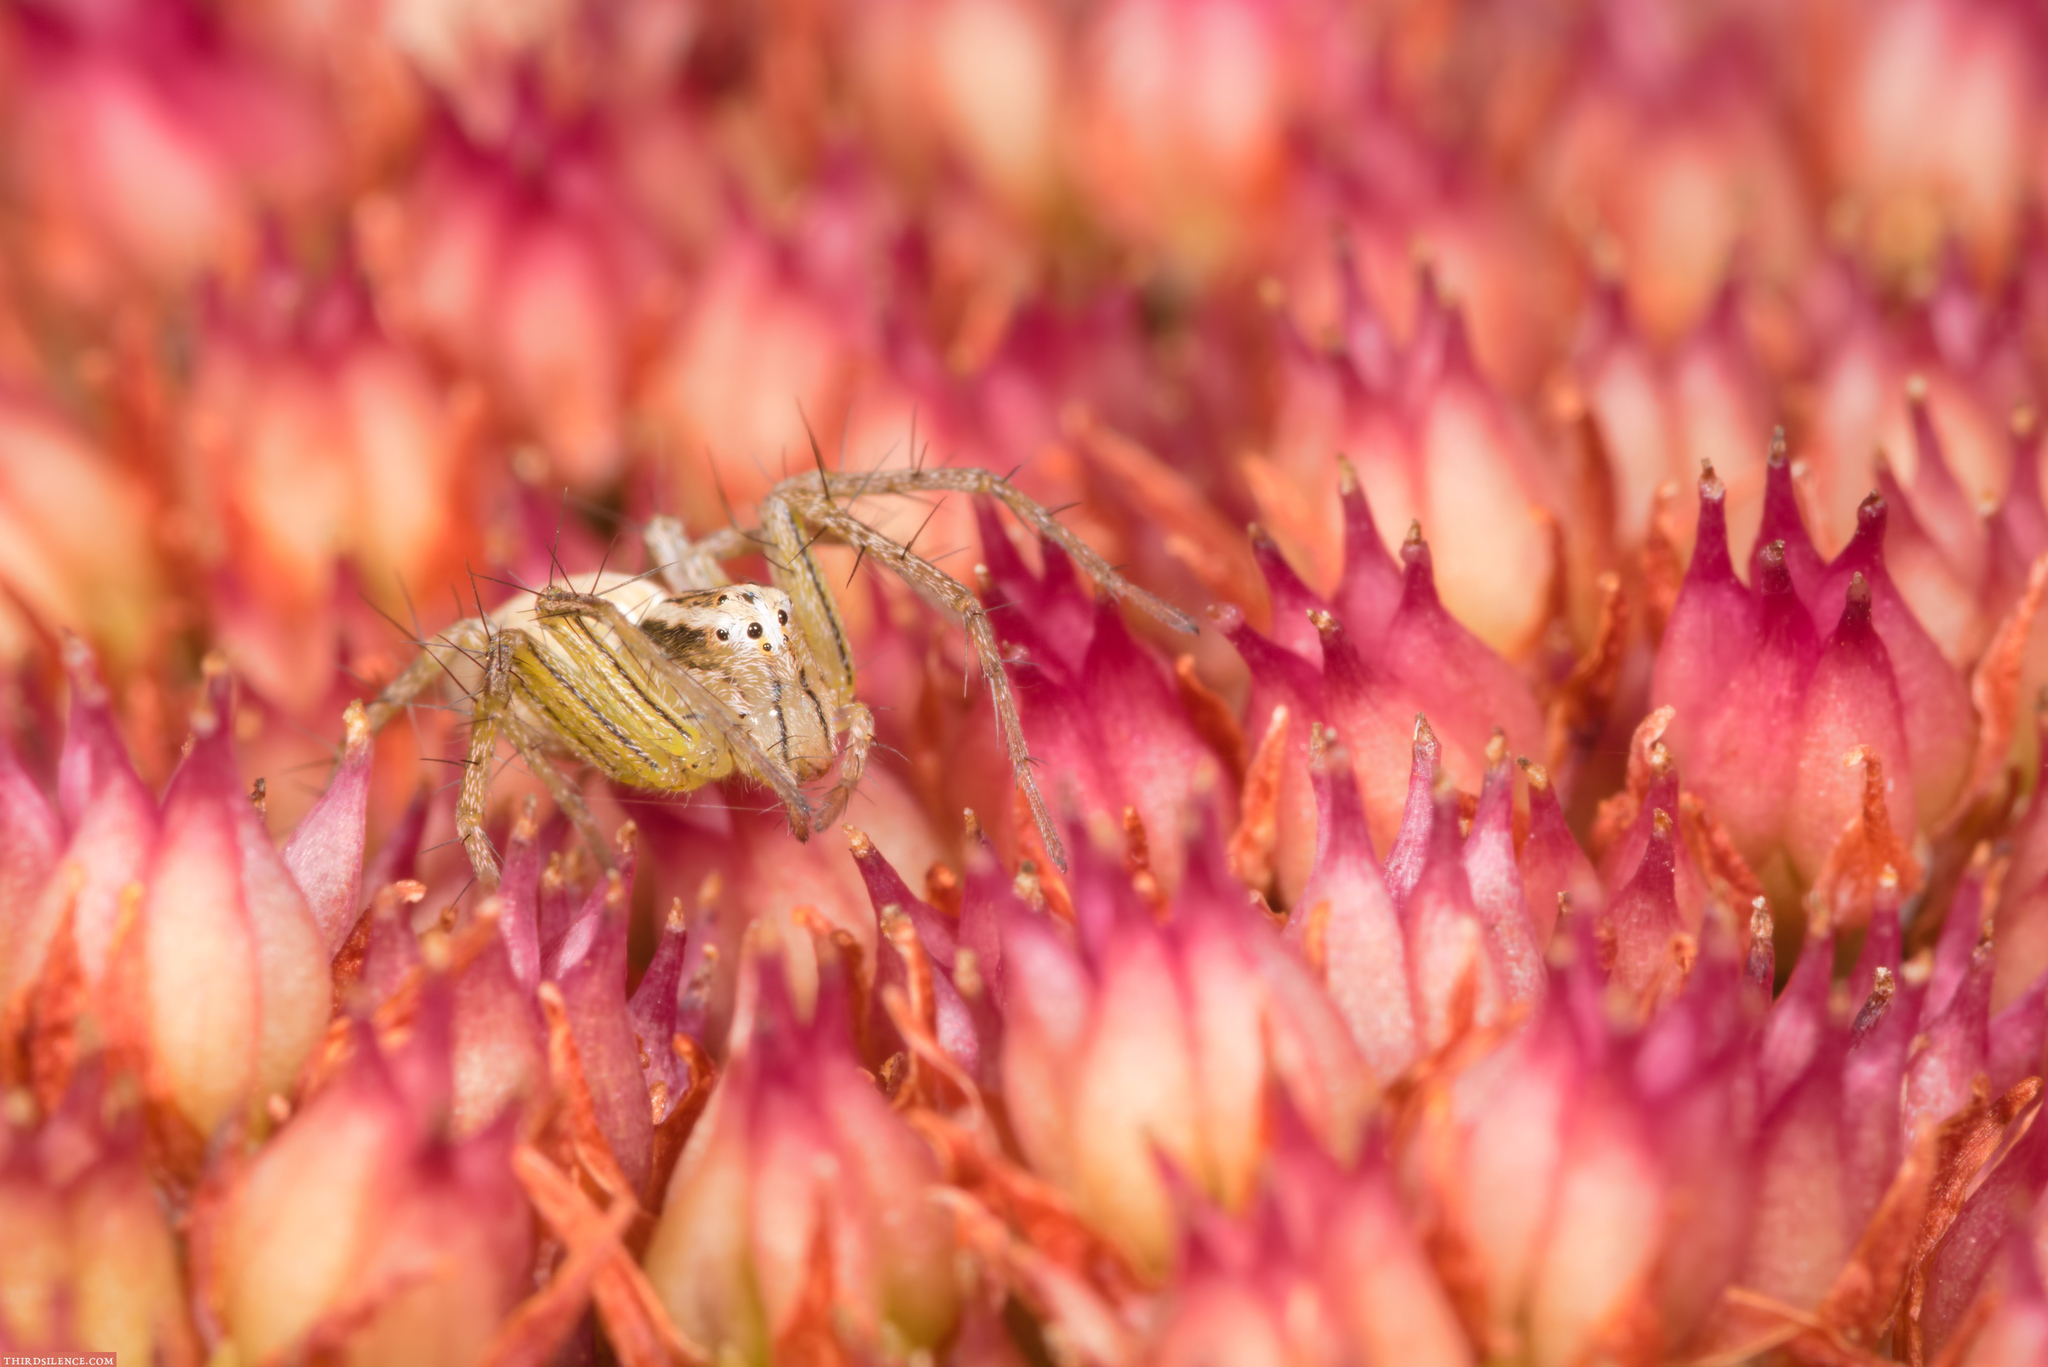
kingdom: Animalia
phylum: Arthropoda
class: Arachnida
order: Araneae
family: Oxyopidae
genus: Oxyopes
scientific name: Oxyopes gracilipes
